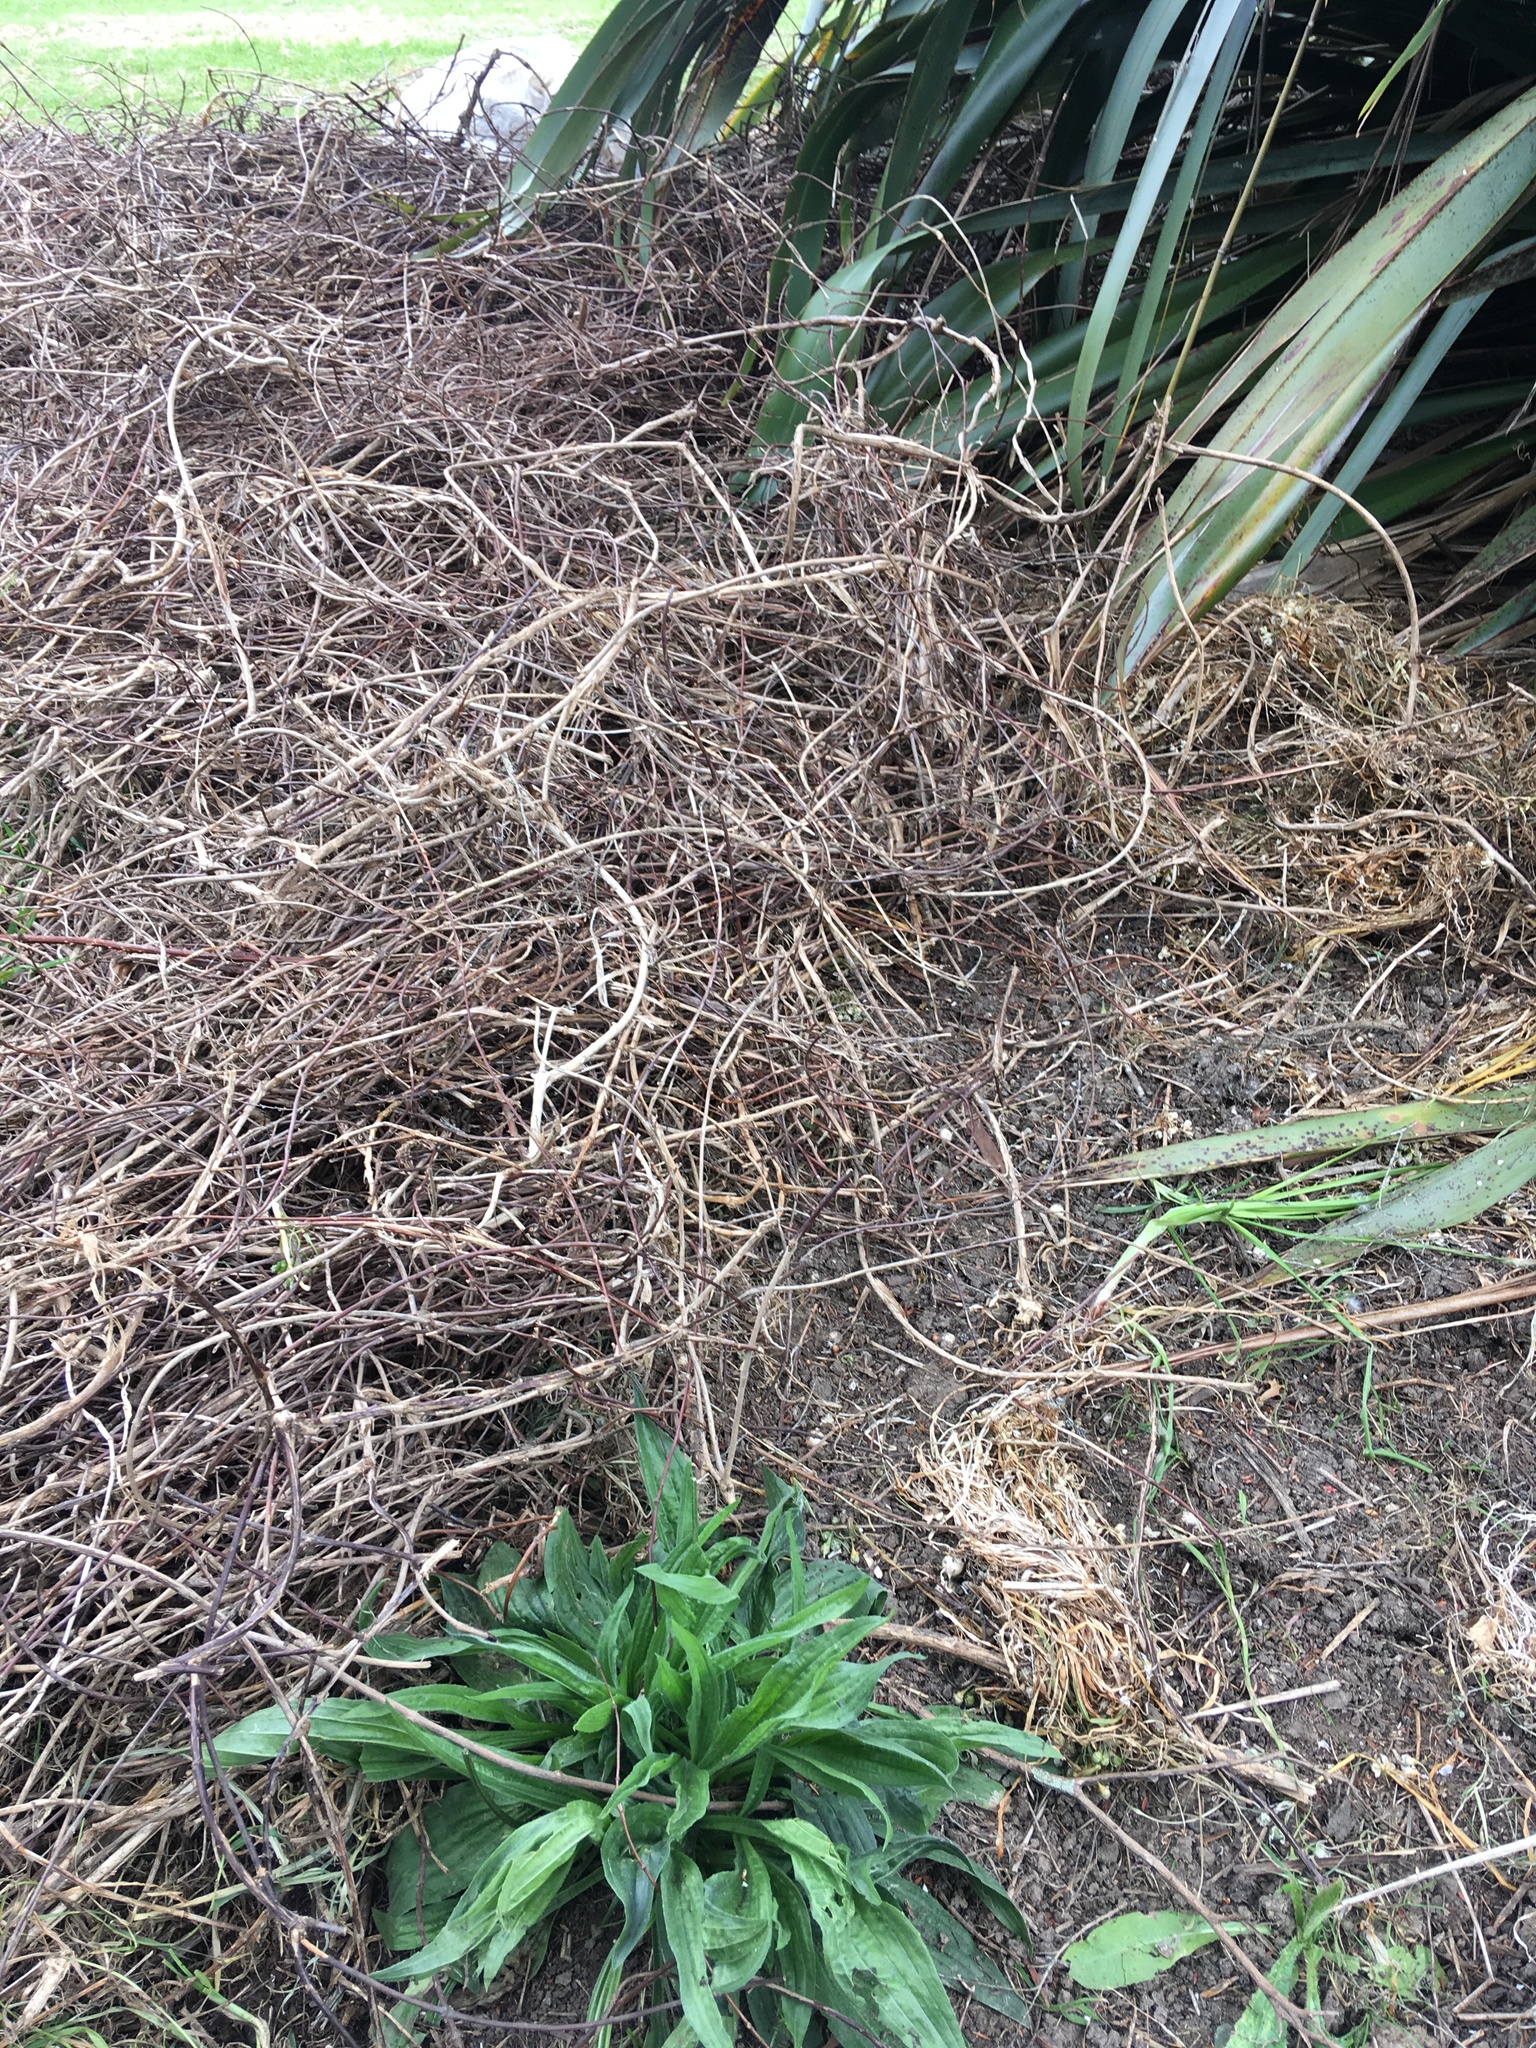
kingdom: Plantae
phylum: Tracheophyta
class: Magnoliopsida
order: Lamiales
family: Plantaginaceae
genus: Plantago
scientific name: Plantago lanceolata
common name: Ribwort plantain
